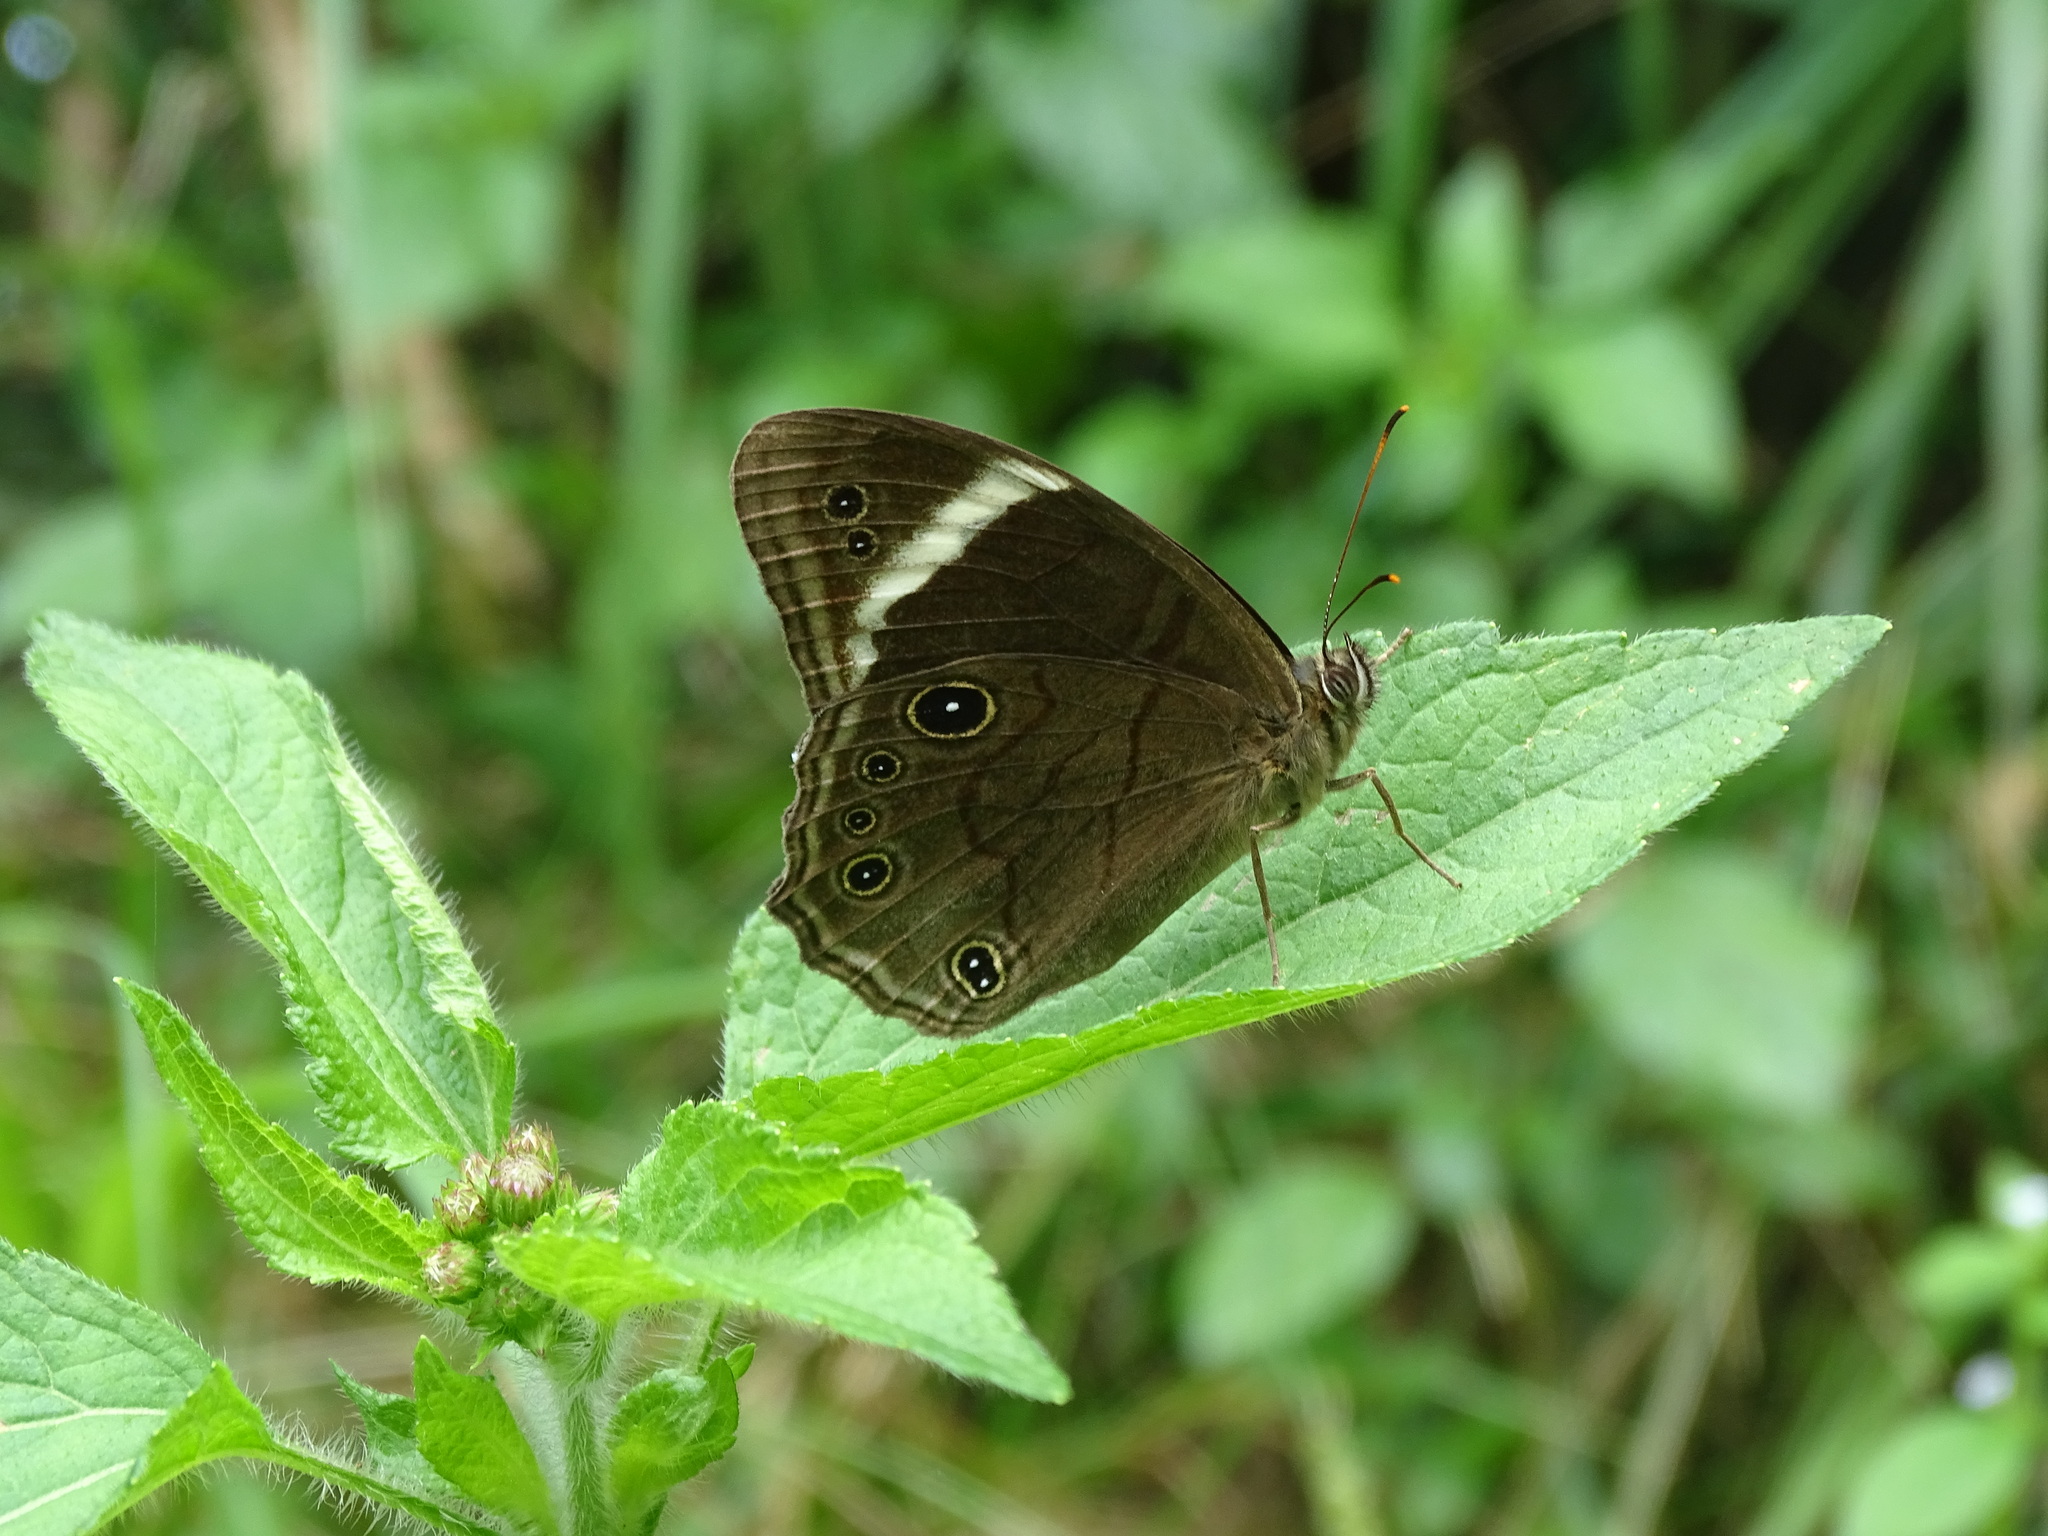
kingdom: Animalia
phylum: Arthropoda
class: Insecta
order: Lepidoptera
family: Nymphalidae
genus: Lethe
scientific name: Lethe mataja
